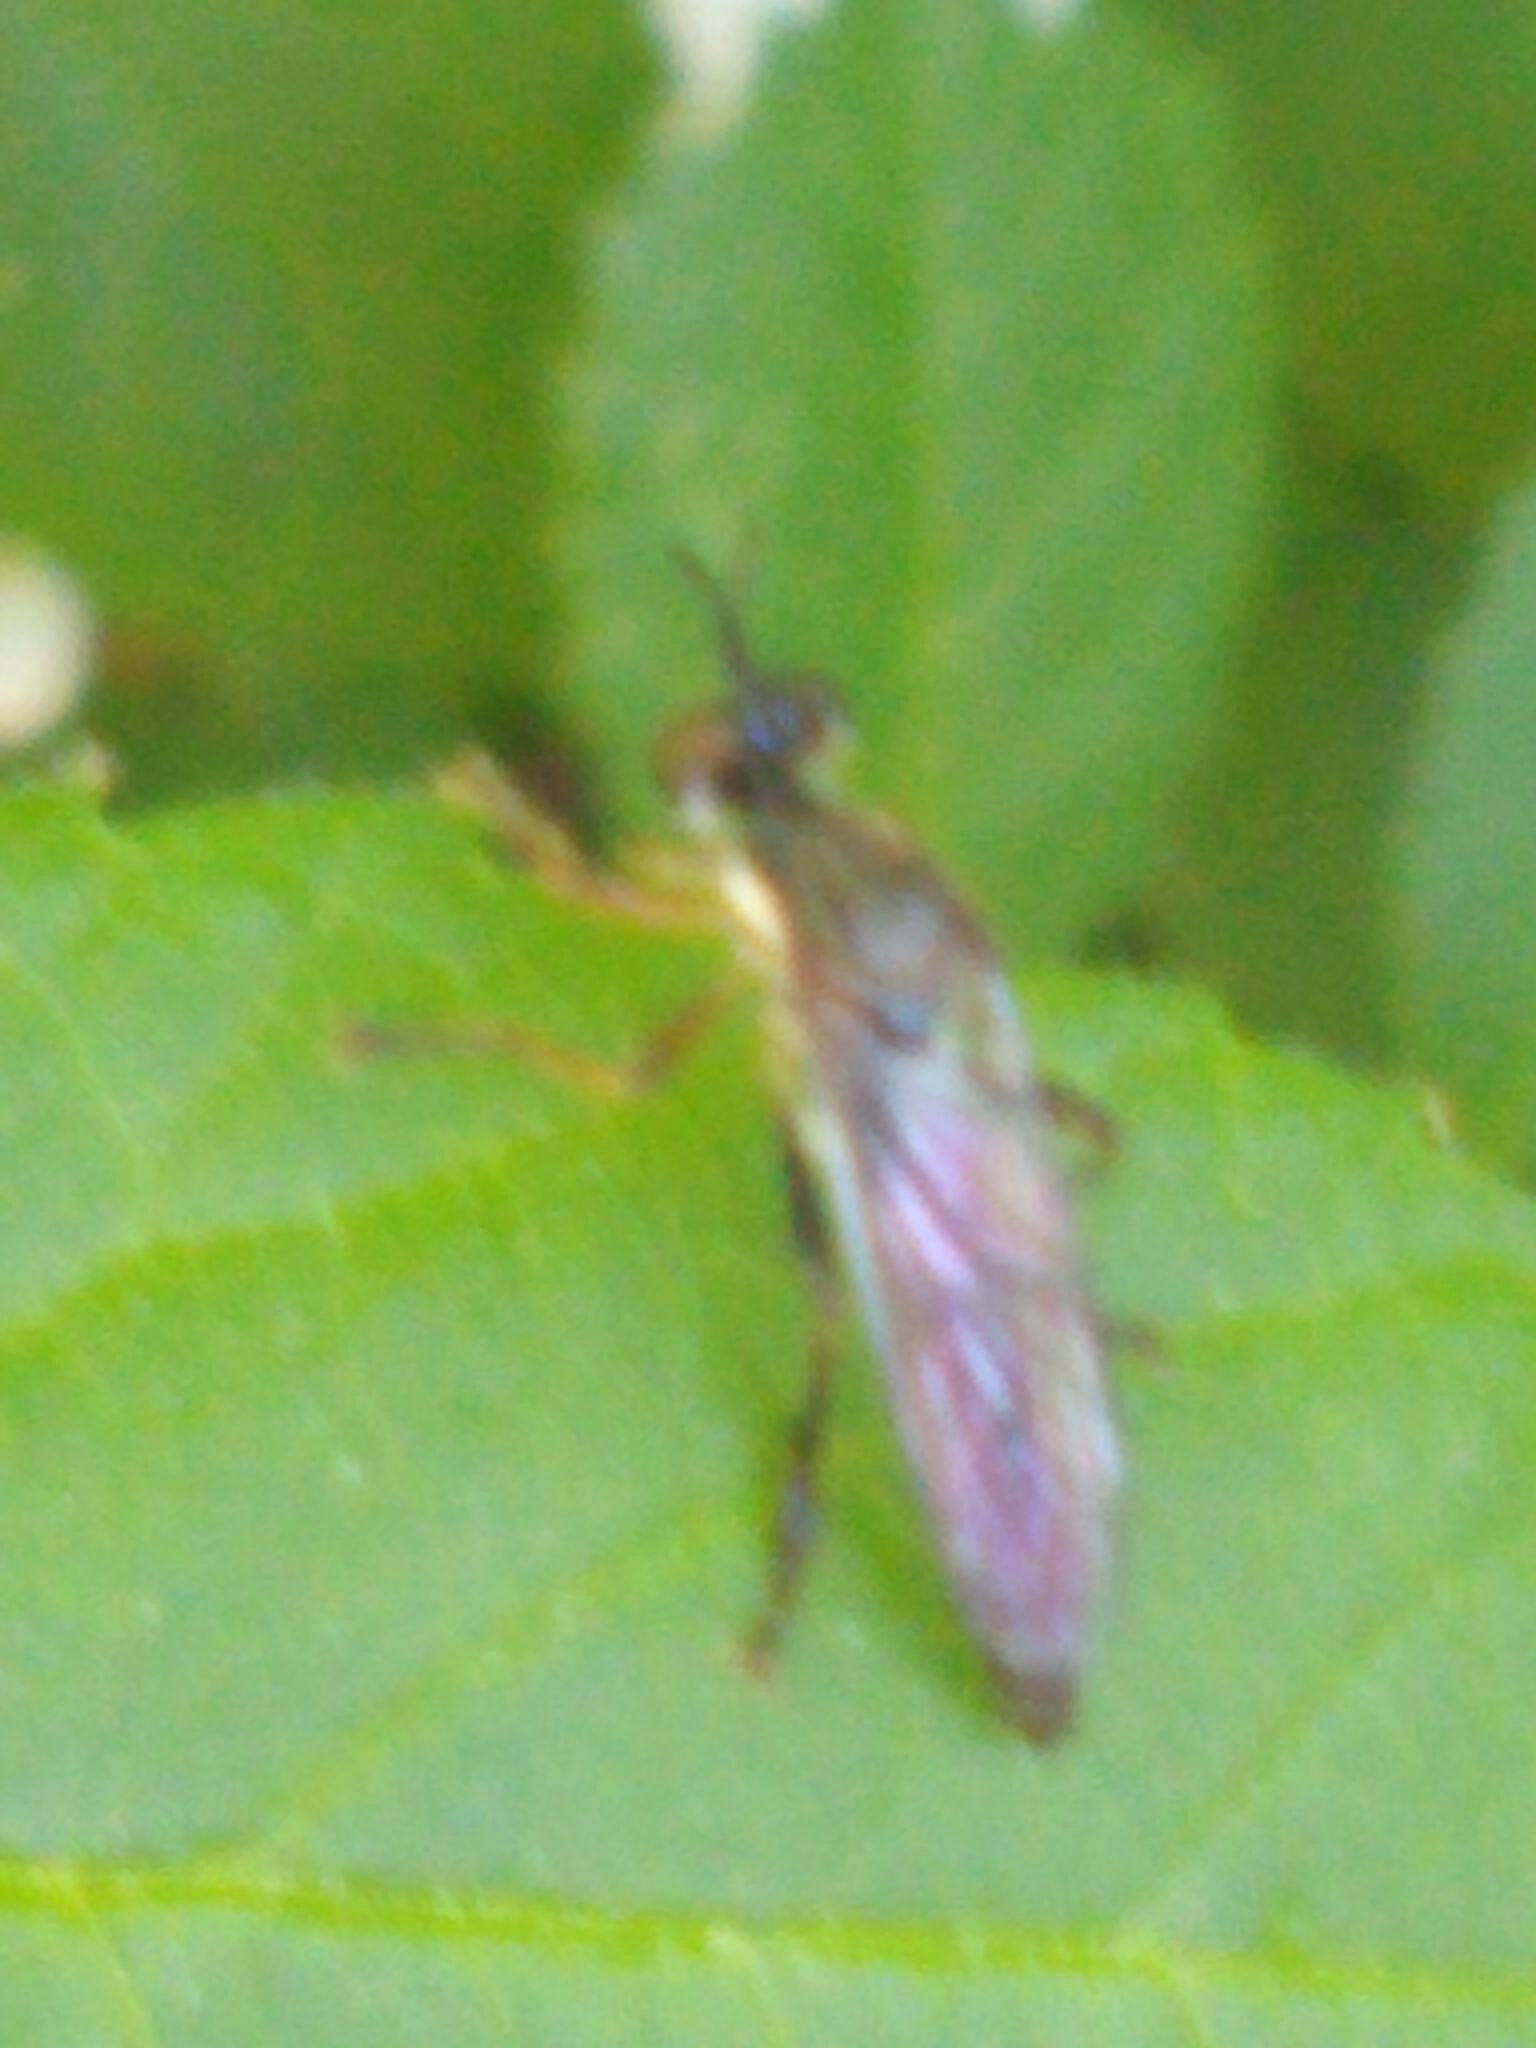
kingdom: Animalia
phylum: Arthropoda
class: Insecta
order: Diptera
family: Asilidae
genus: Dioctria
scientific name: Dioctria hyalipennis
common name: Stripe-legged robberfly
